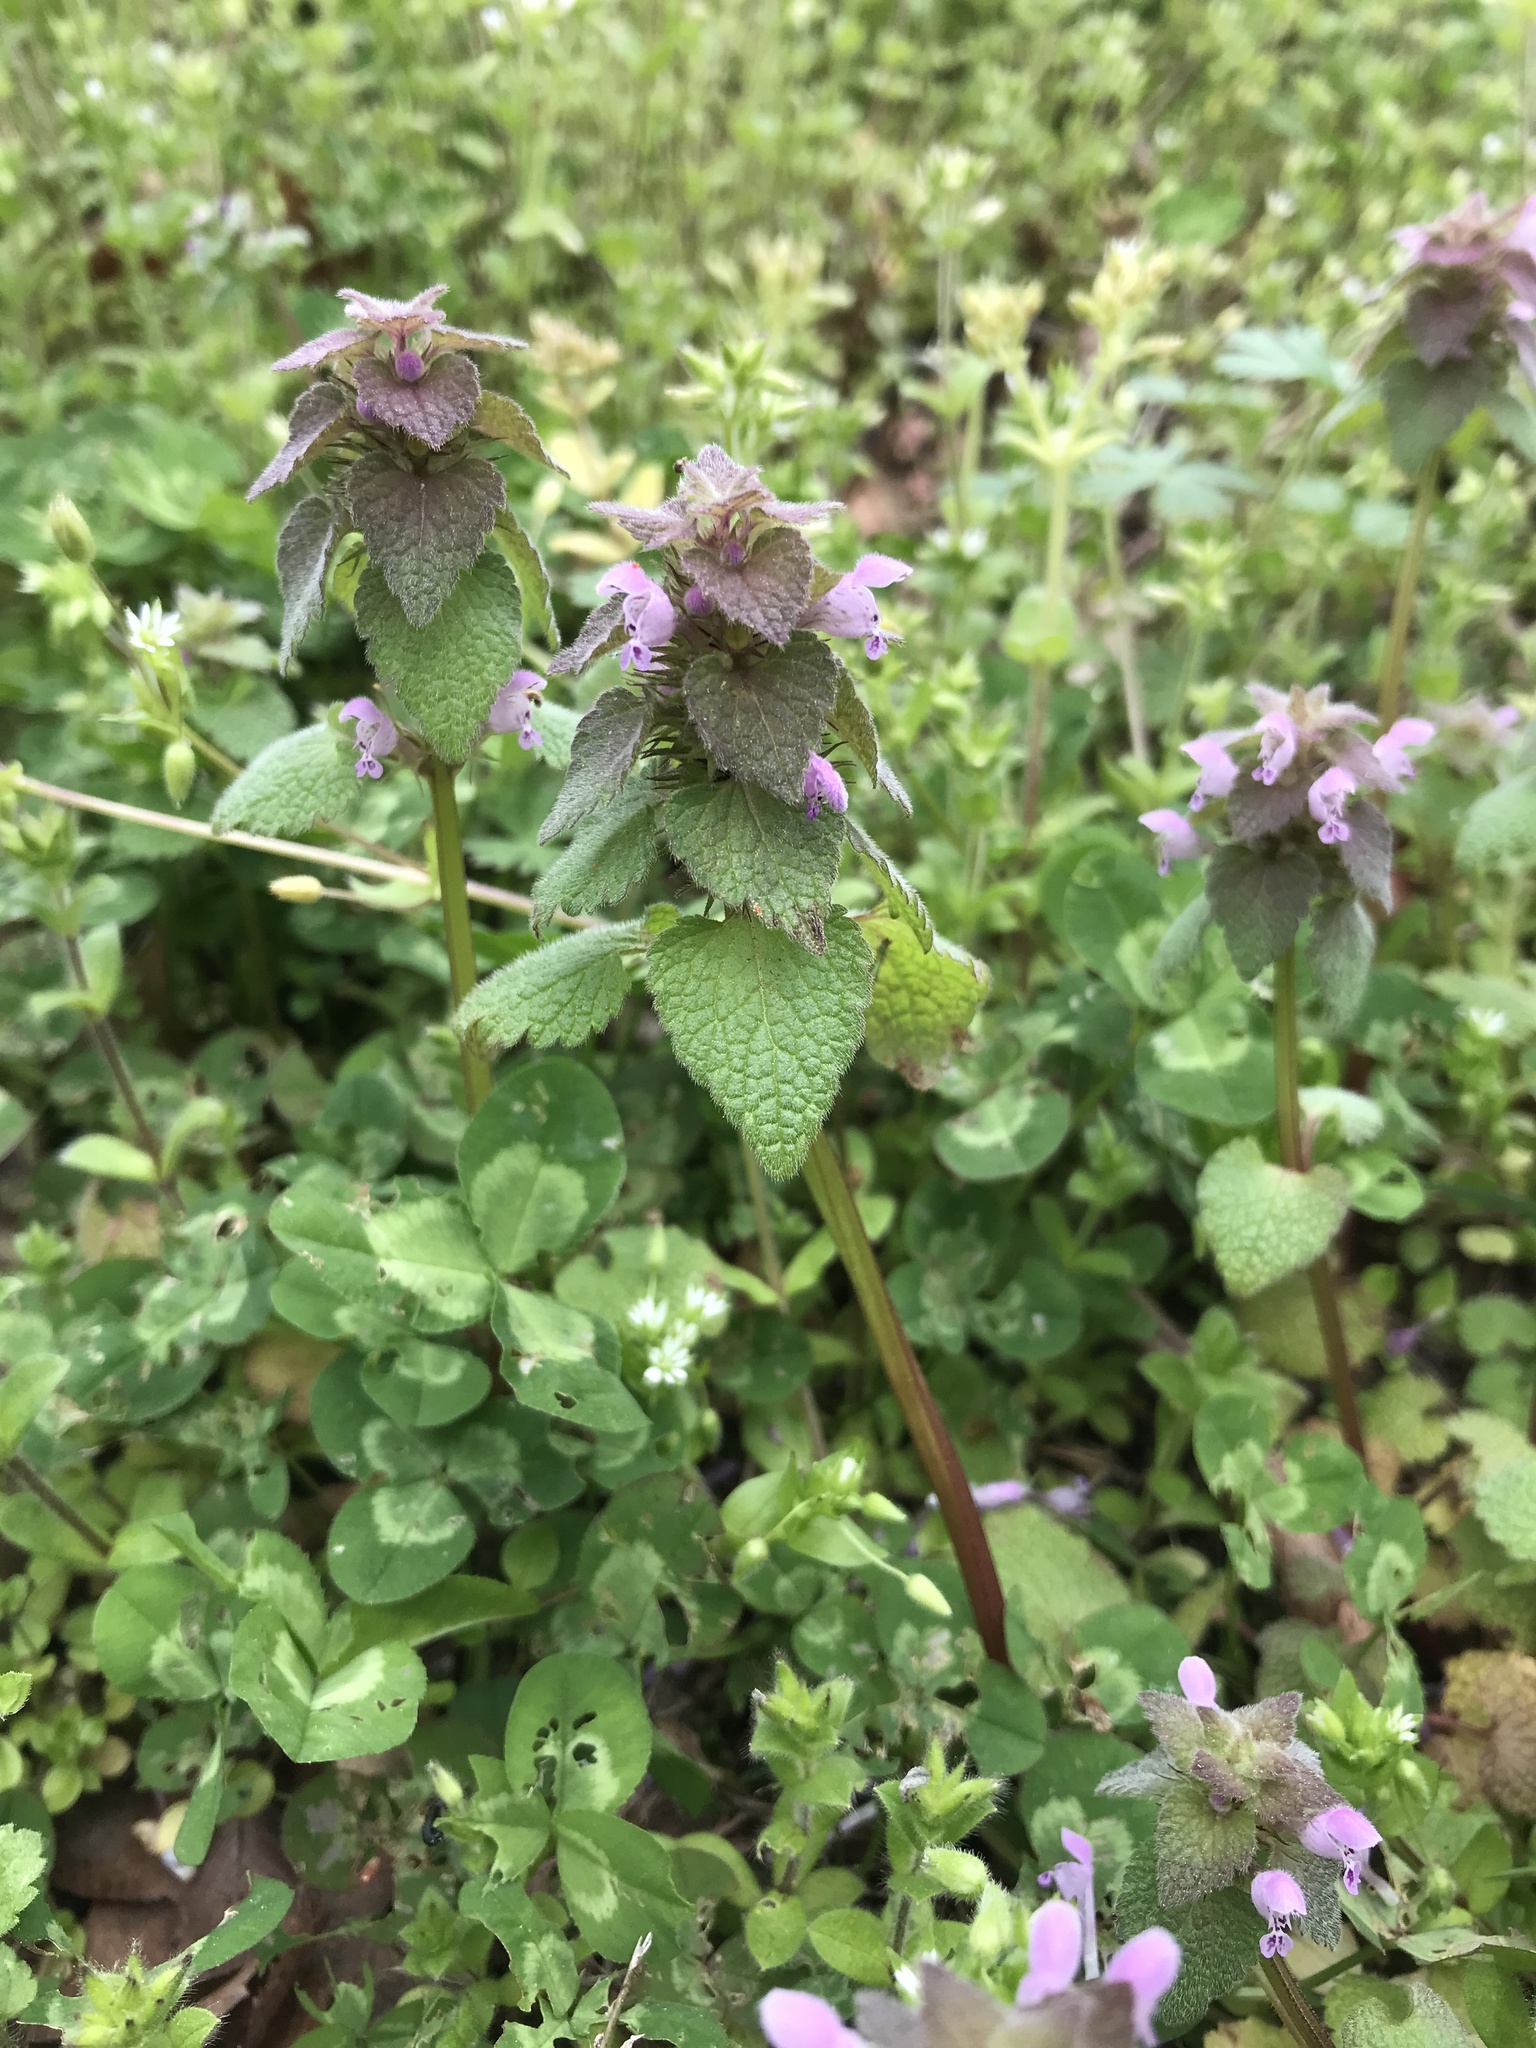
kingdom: Plantae
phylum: Tracheophyta
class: Magnoliopsida
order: Lamiales
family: Lamiaceae
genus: Lamium
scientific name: Lamium purpureum
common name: Red dead-nettle
